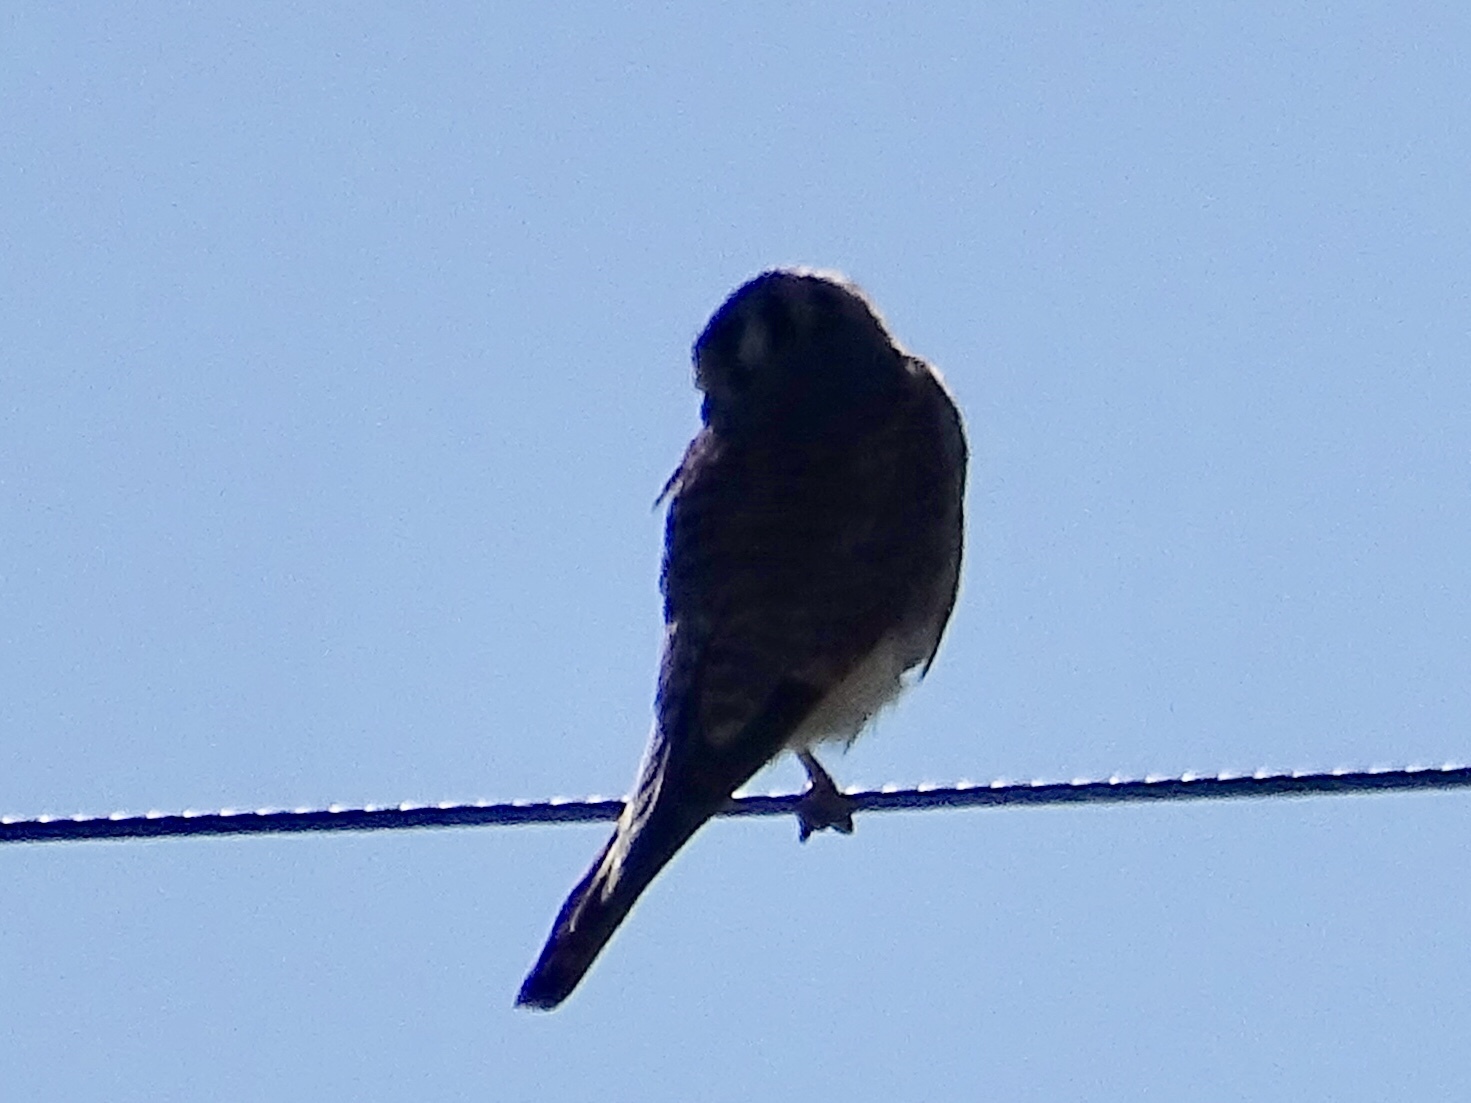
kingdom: Animalia
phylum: Chordata
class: Aves
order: Falconiformes
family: Falconidae
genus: Falco
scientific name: Falco sparverius
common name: American kestrel
